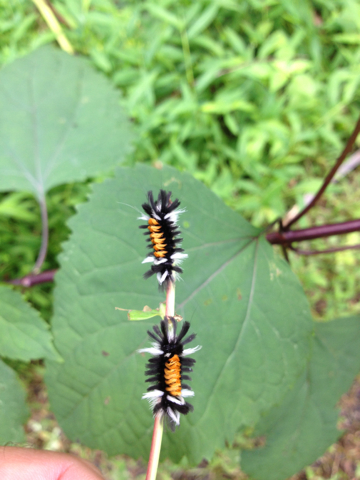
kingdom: Animalia
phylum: Arthropoda
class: Insecta
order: Lepidoptera
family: Erebidae
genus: Euchaetes
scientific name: Euchaetes egle
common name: Milkweed tussock moth
